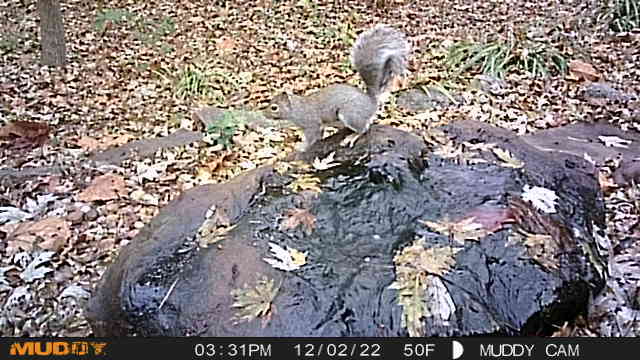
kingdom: Animalia
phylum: Chordata
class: Mammalia
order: Rodentia
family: Sciuridae
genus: Sciurus
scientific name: Sciurus carolinensis
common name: Eastern gray squirrel
